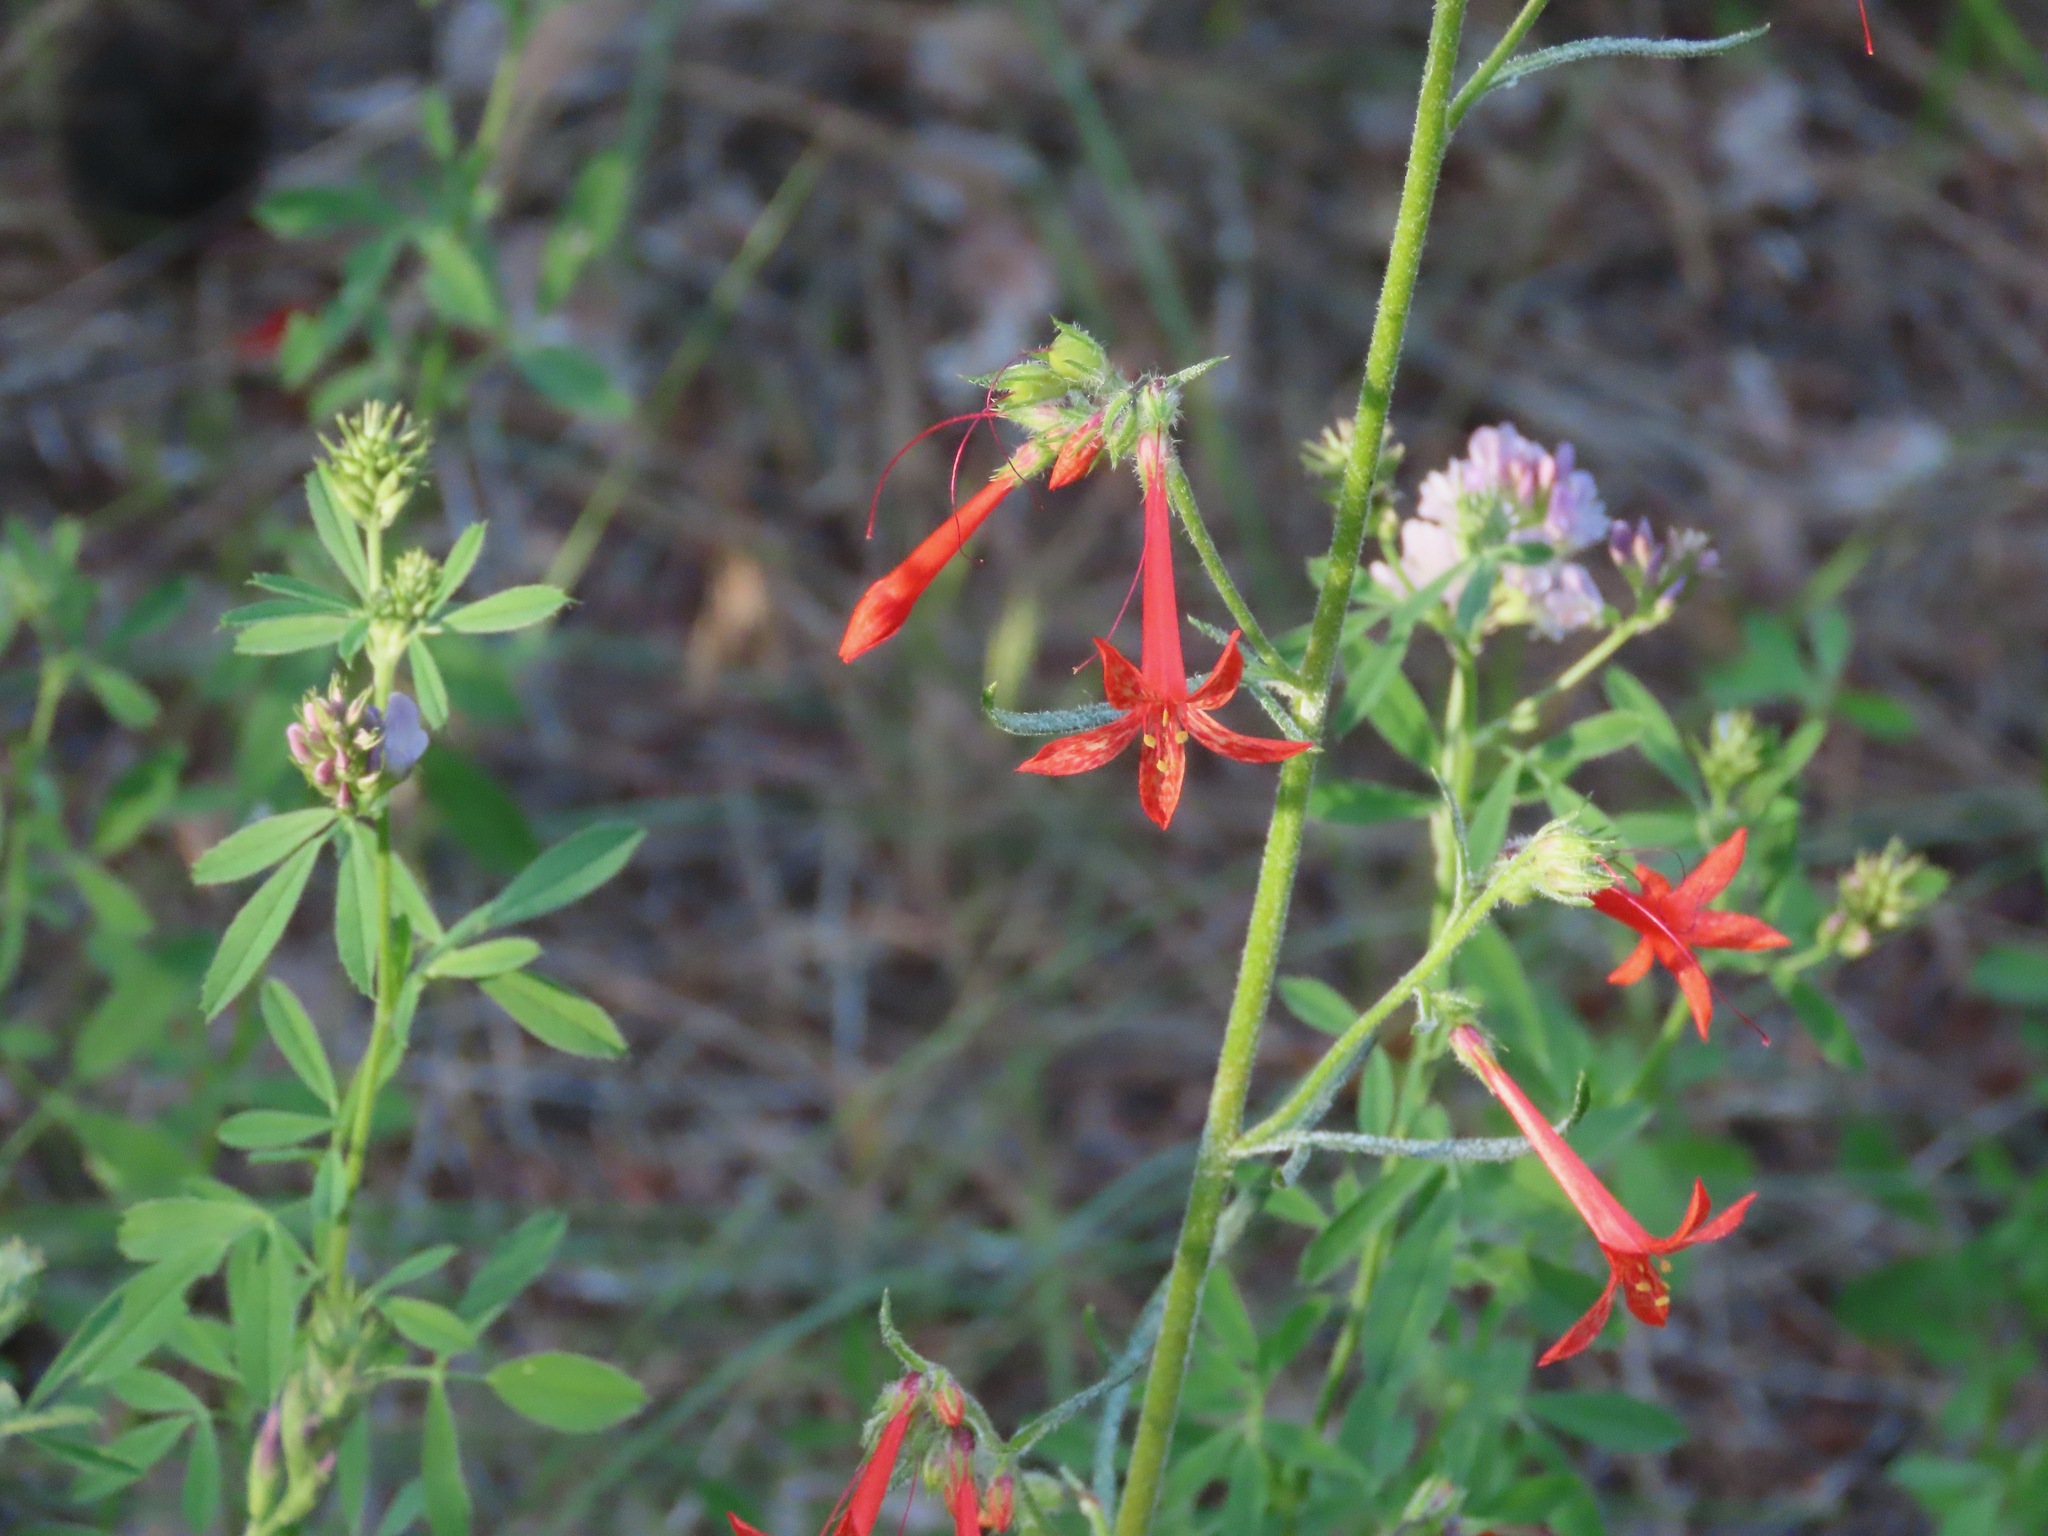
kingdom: Plantae
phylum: Tracheophyta
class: Magnoliopsida
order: Ericales
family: Polemoniaceae
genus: Ipomopsis
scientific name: Ipomopsis aggregata
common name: Scarlet gilia
